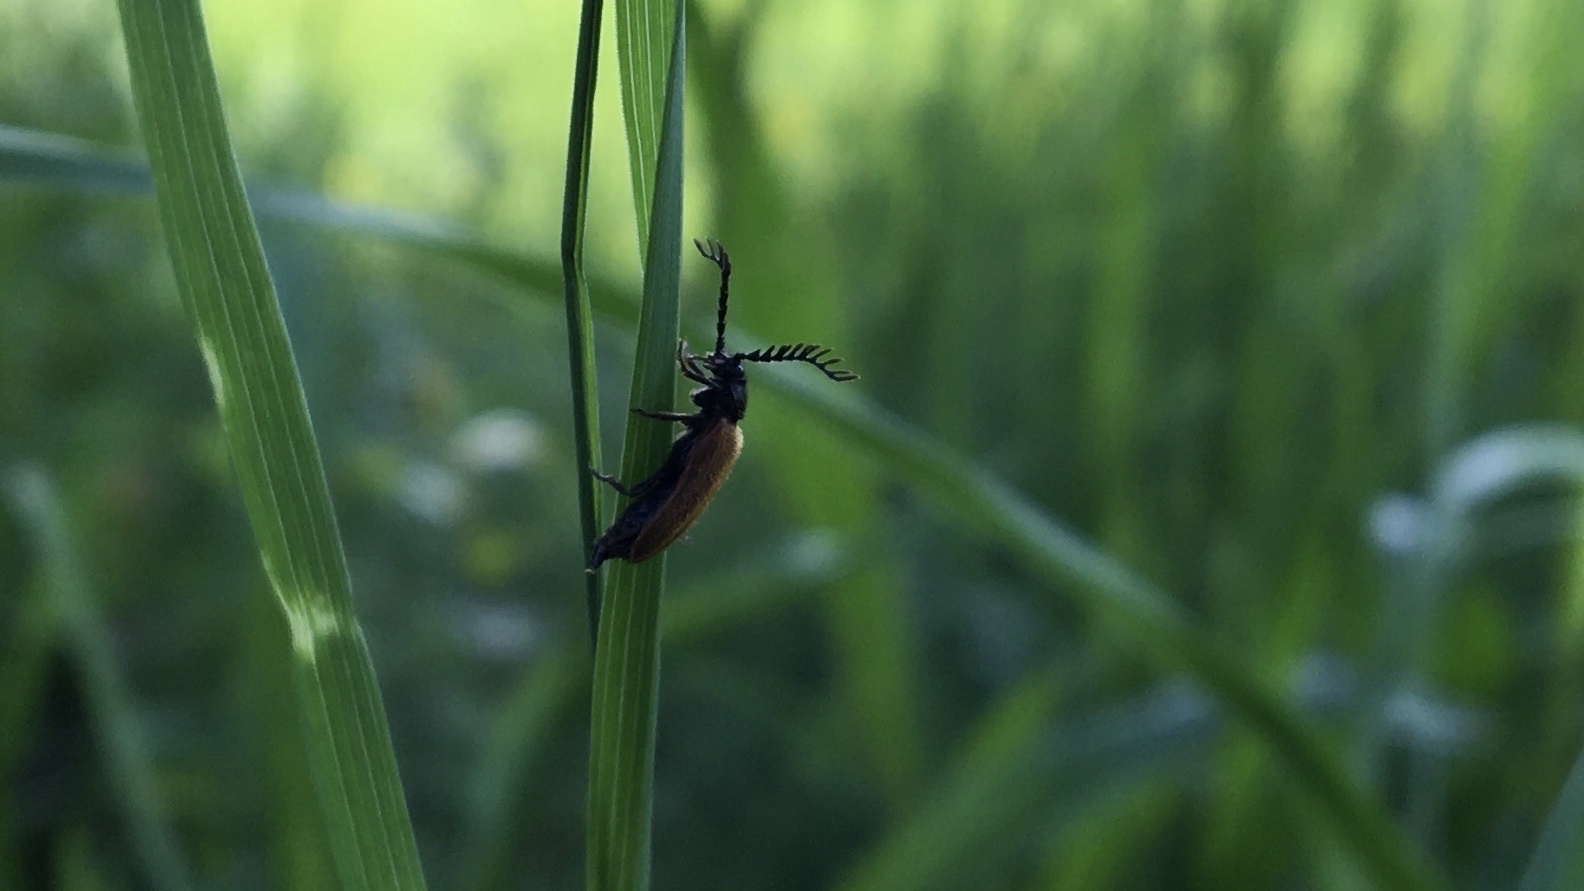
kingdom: Animalia
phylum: Arthropoda
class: Insecta
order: Coleoptera
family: Drilidae
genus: Drilus
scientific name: Drilus flavescens
